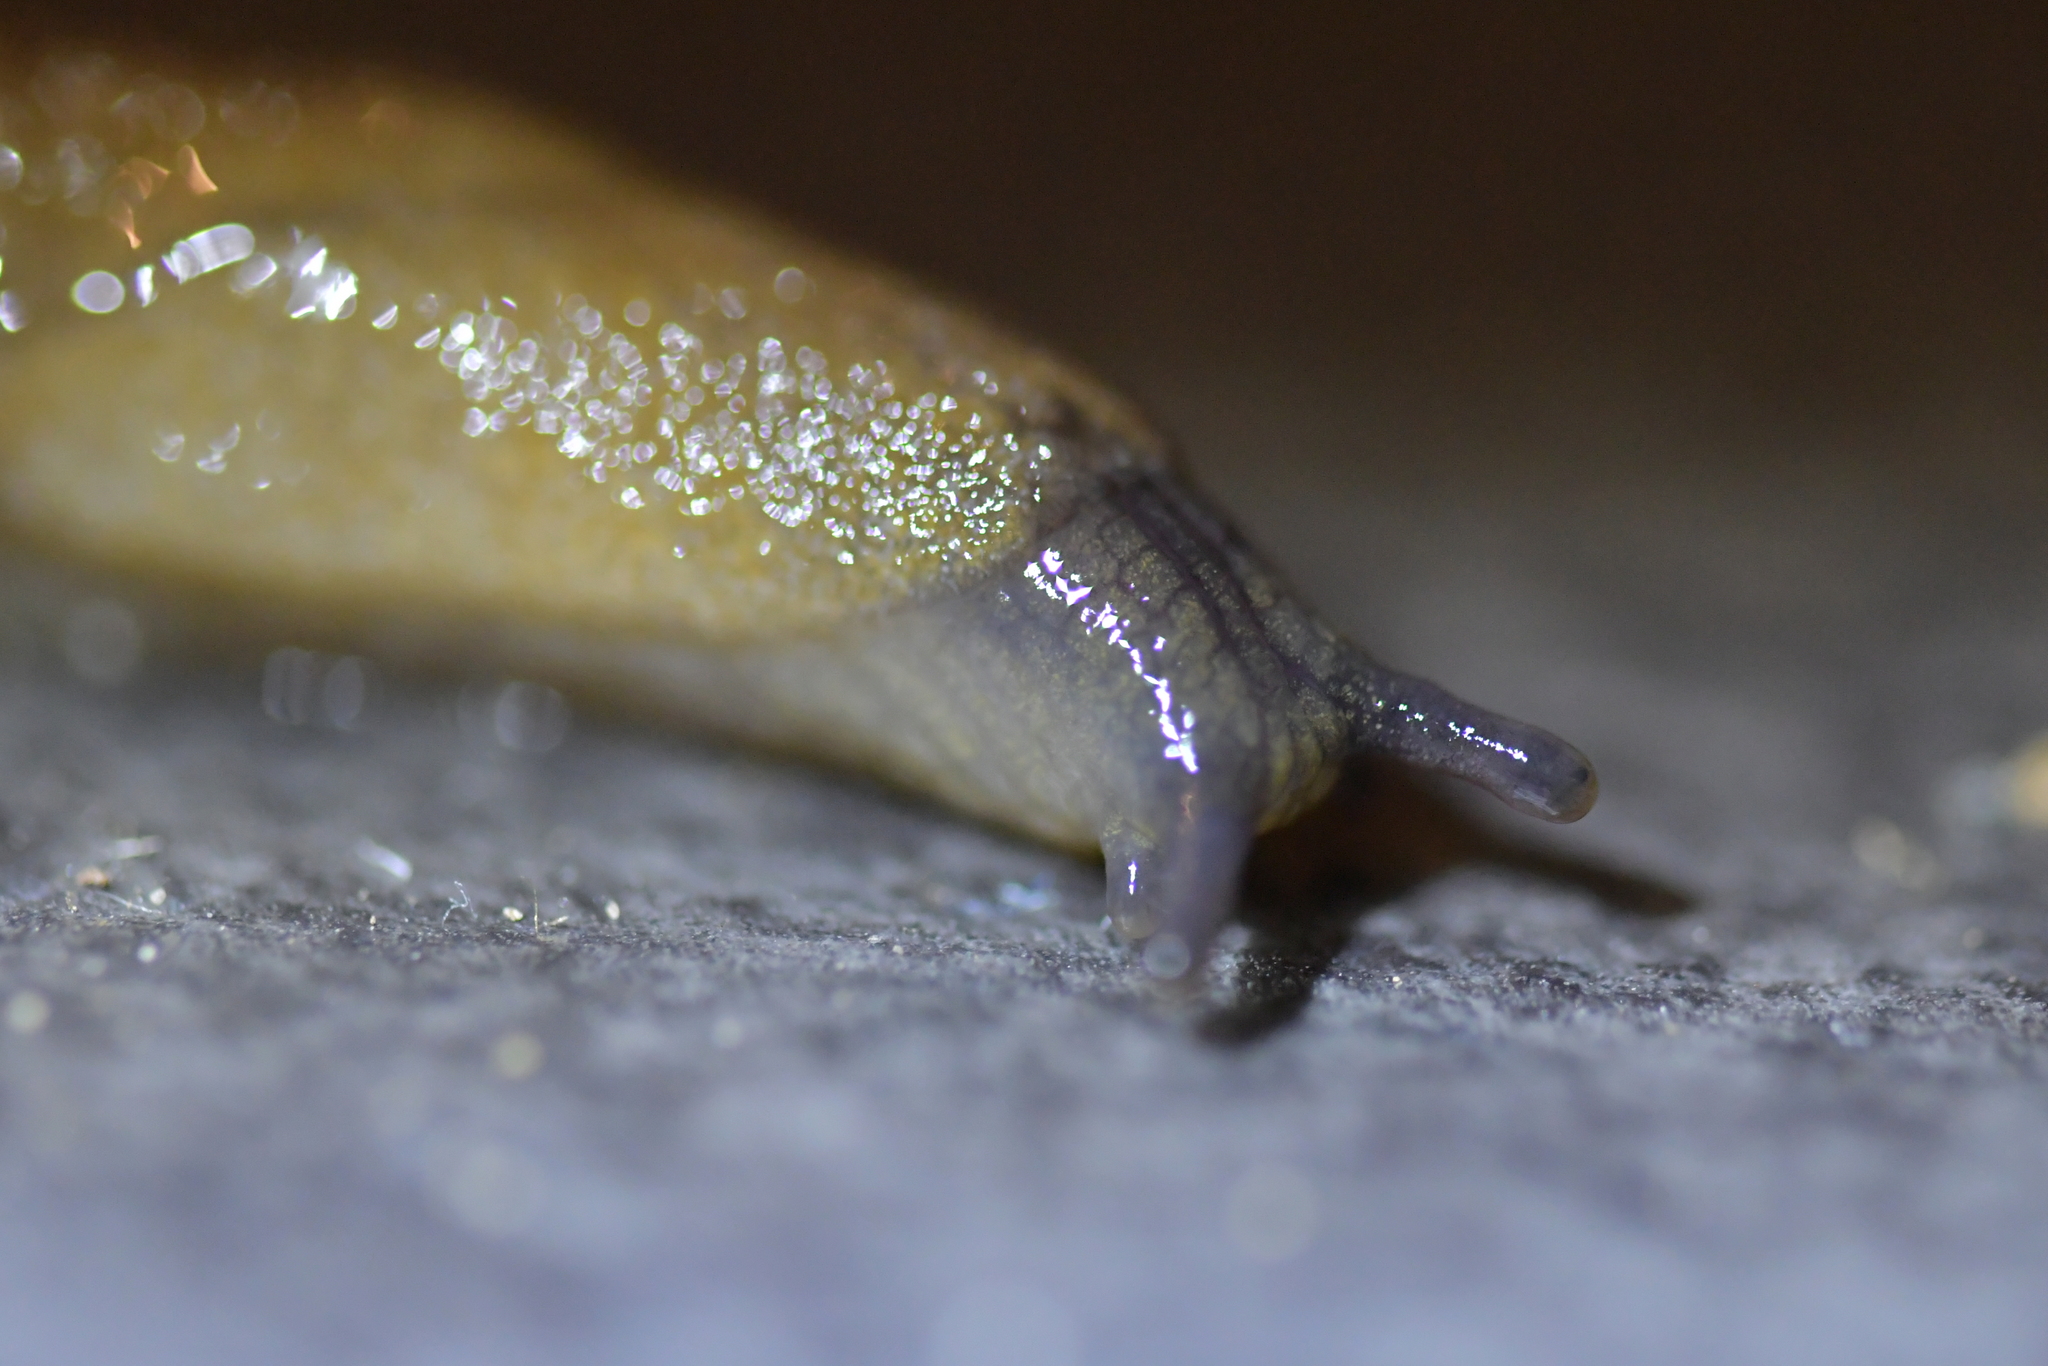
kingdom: Animalia
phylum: Mollusca
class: Gastropoda
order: Stylommatophora
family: Milacidae
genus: Milax
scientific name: Milax gagates
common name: Greenhouse slug
